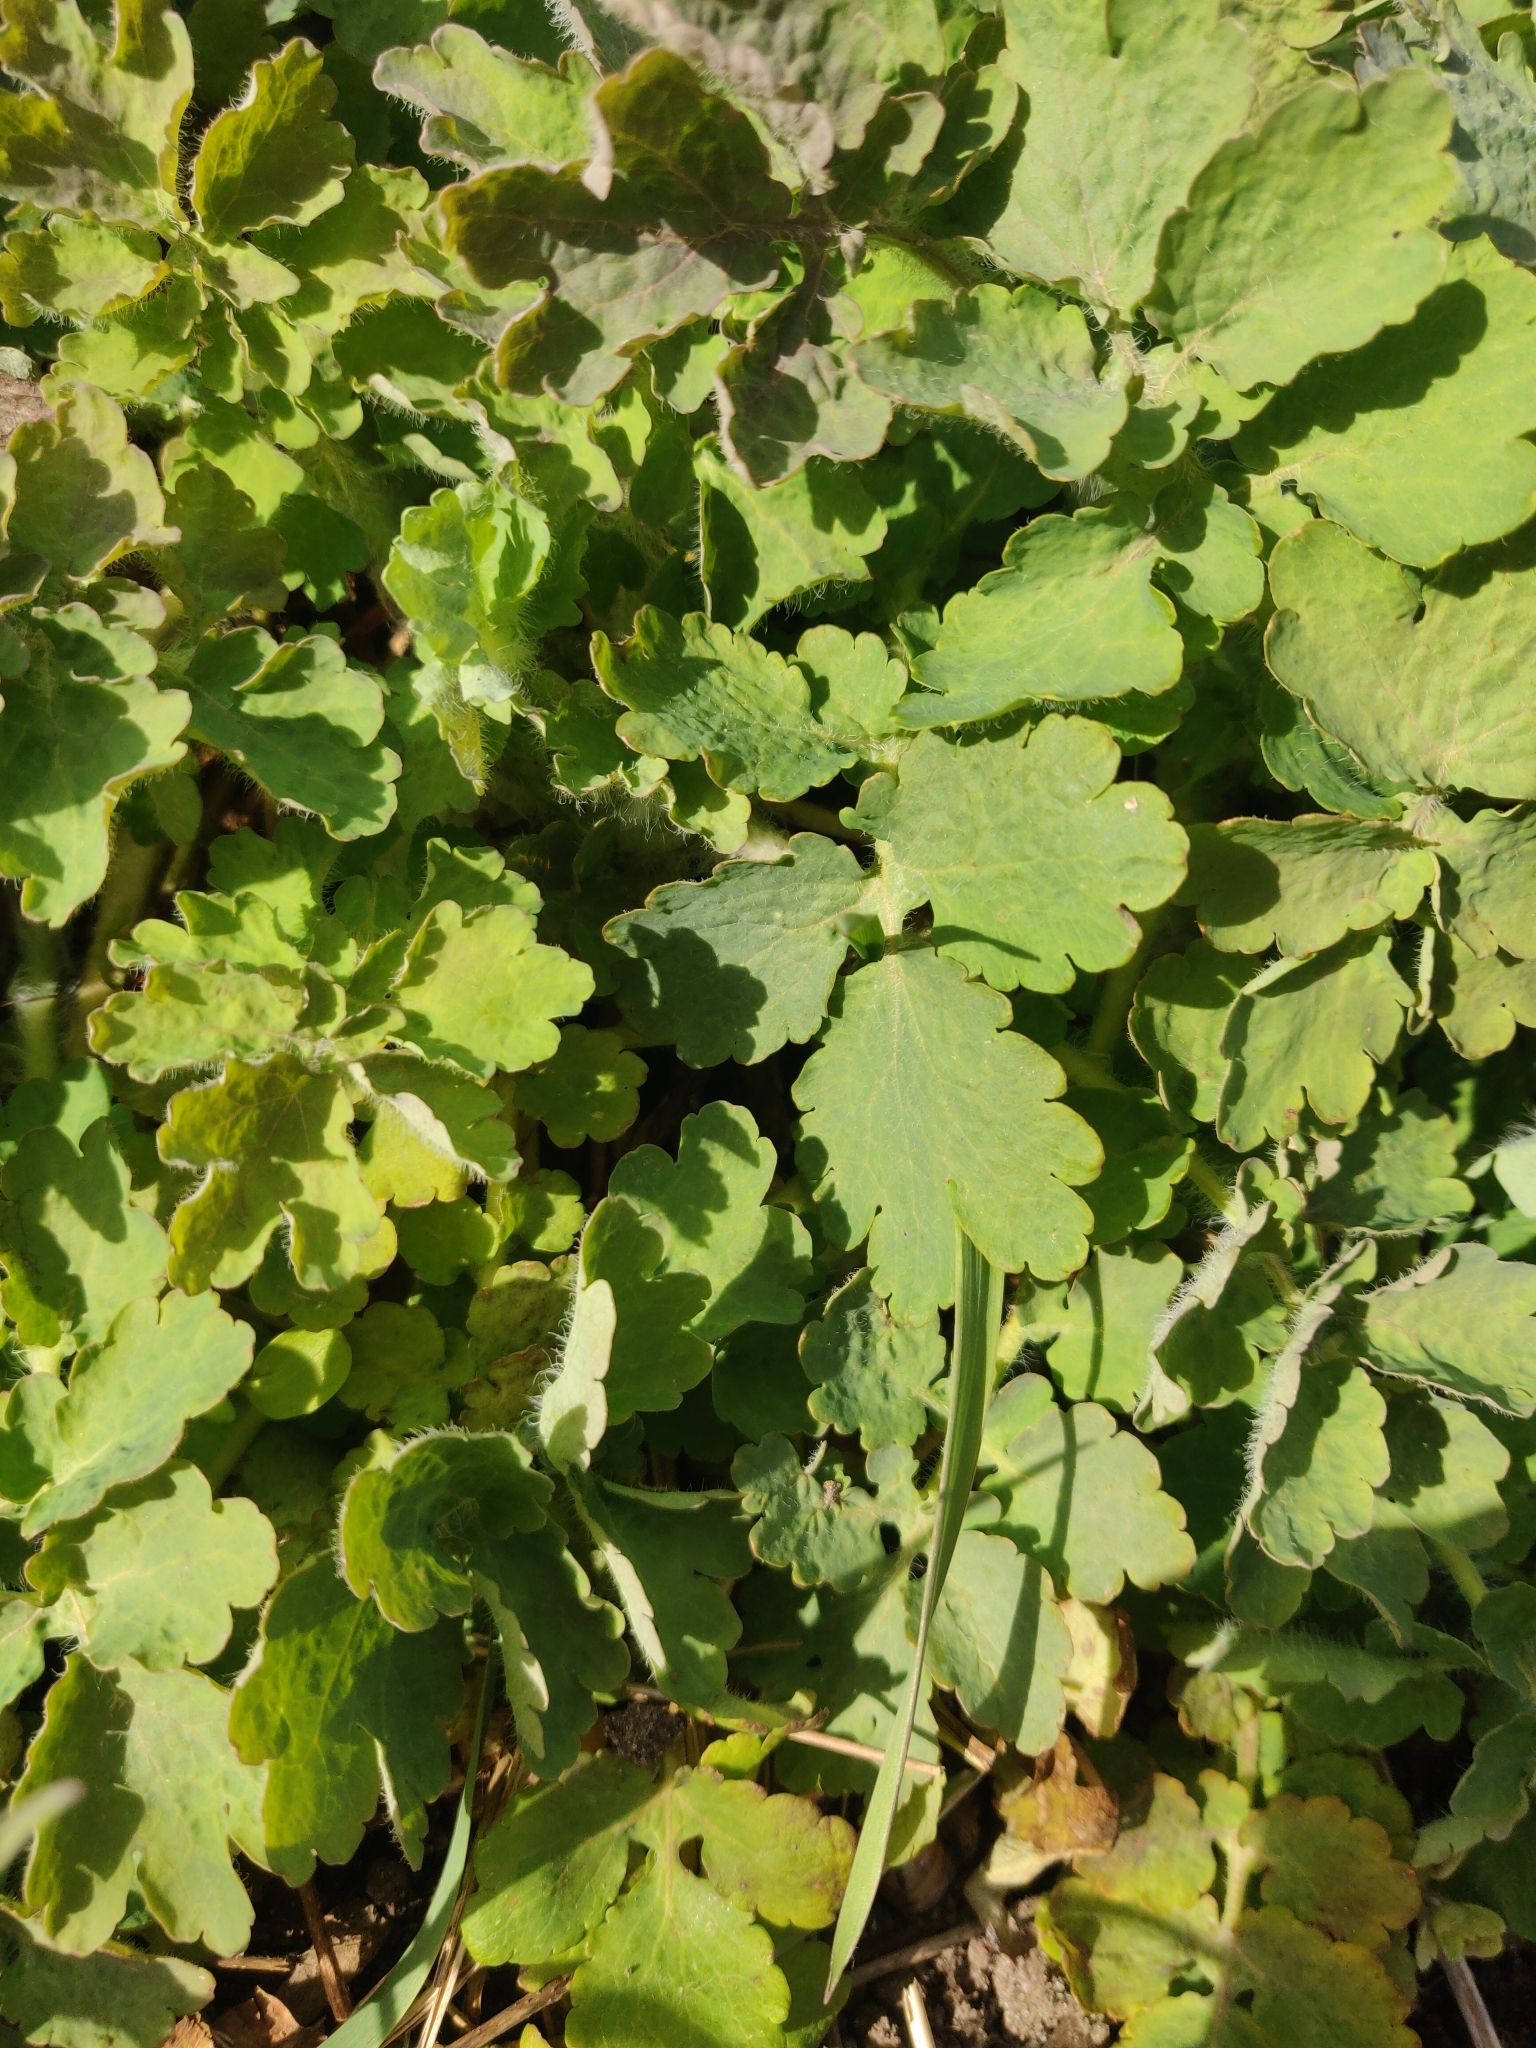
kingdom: Plantae
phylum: Tracheophyta
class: Magnoliopsida
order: Ranunculales
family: Papaveraceae
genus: Chelidonium
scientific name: Chelidonium majus
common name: Greater celandine
